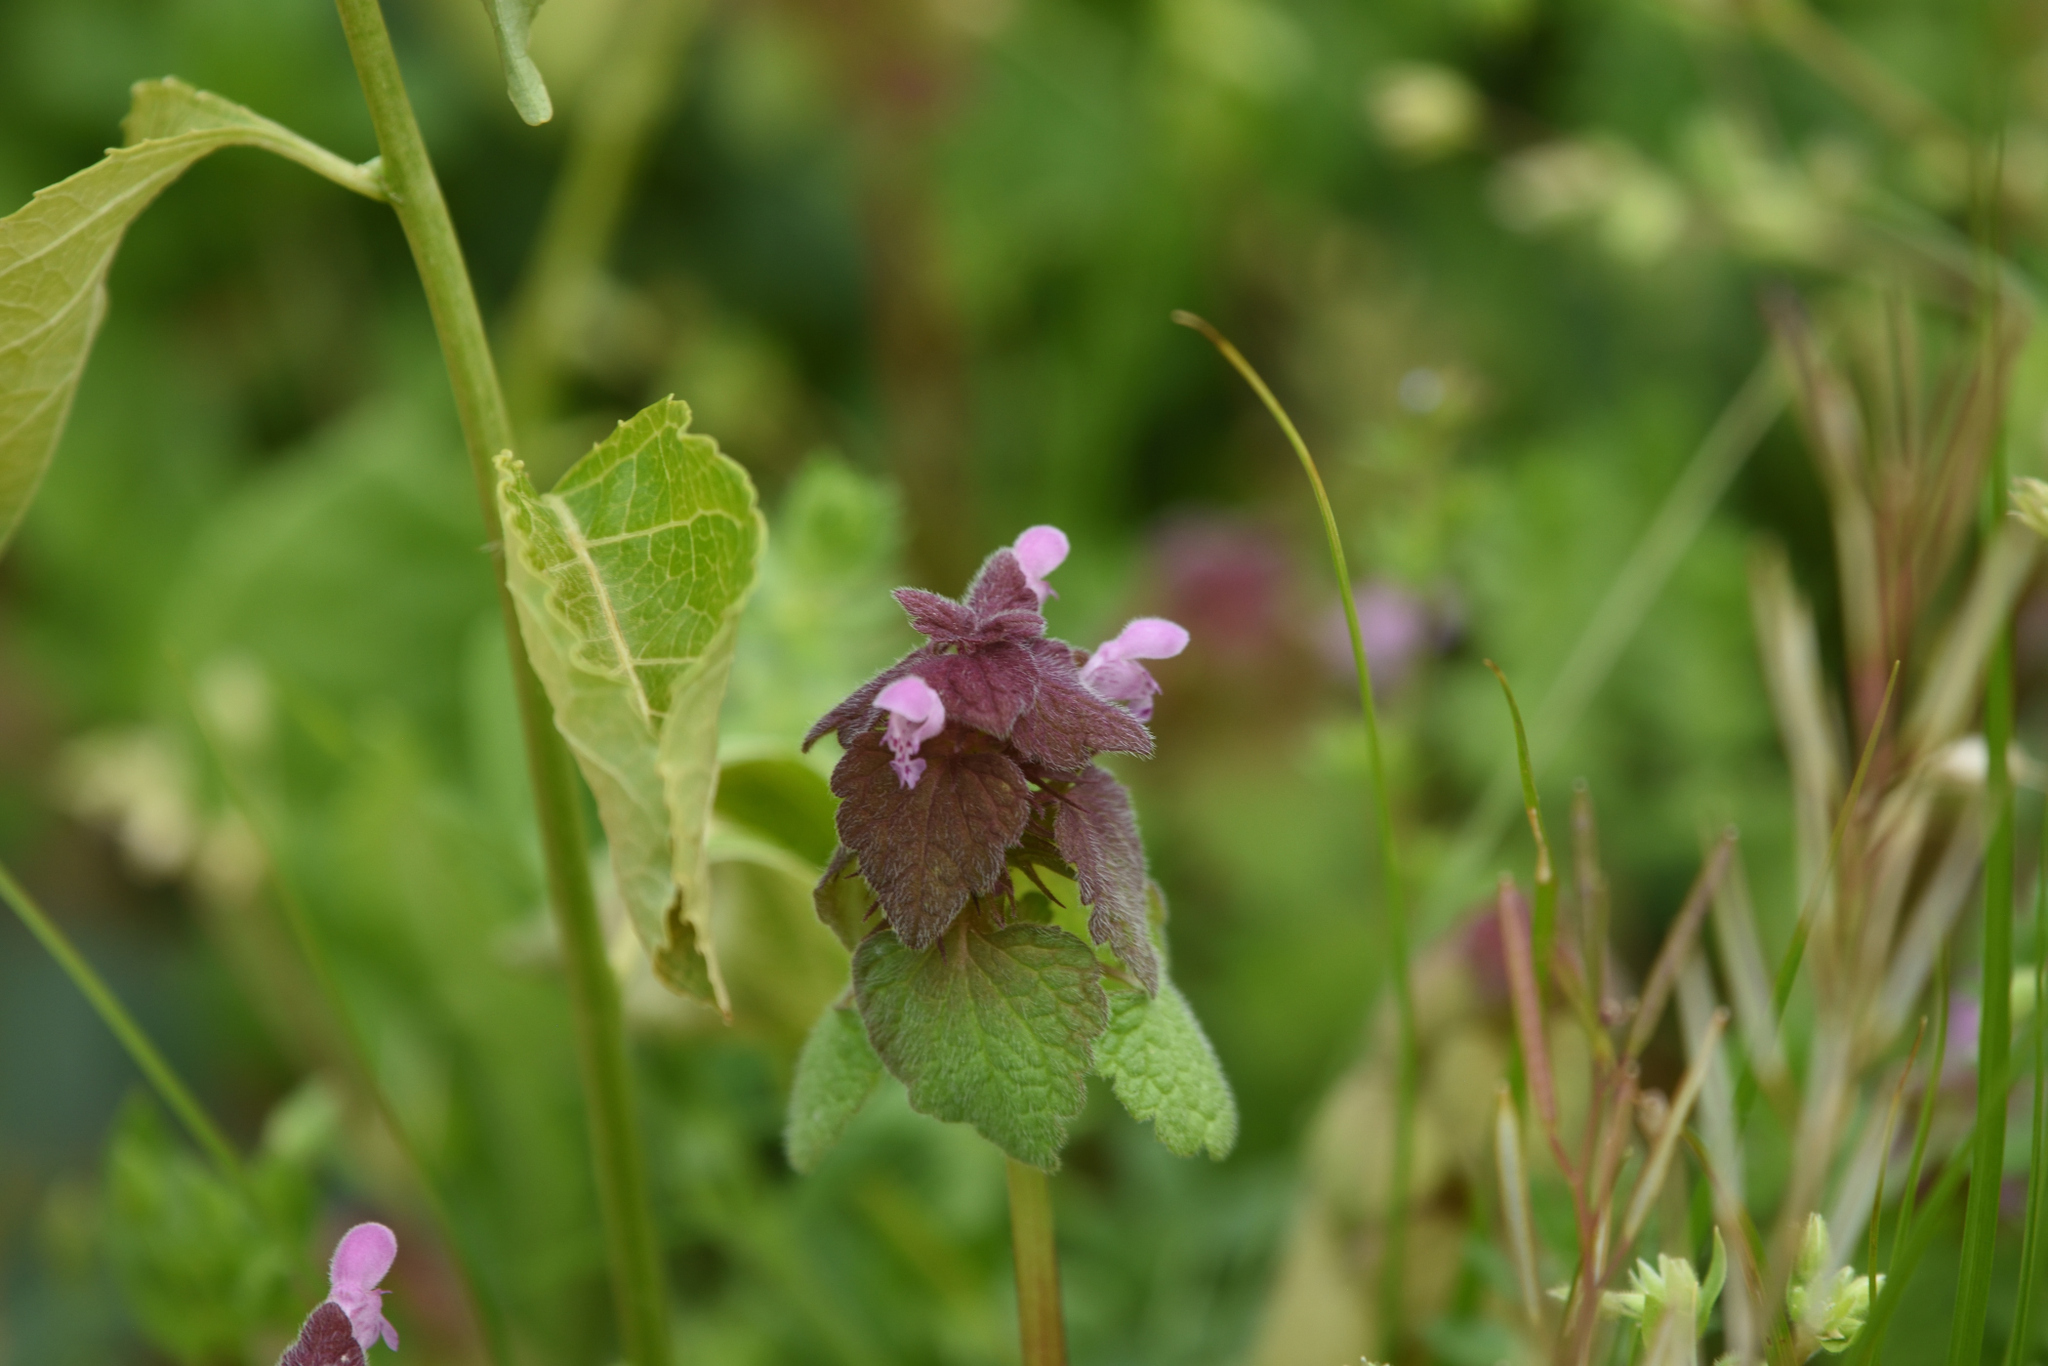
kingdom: Plantae
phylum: Tracheophyta
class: Magnoliopsida
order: Lamiales
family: Lamiaceae
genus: Lamium
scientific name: Lamium purpureum
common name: Red dead-nettle
